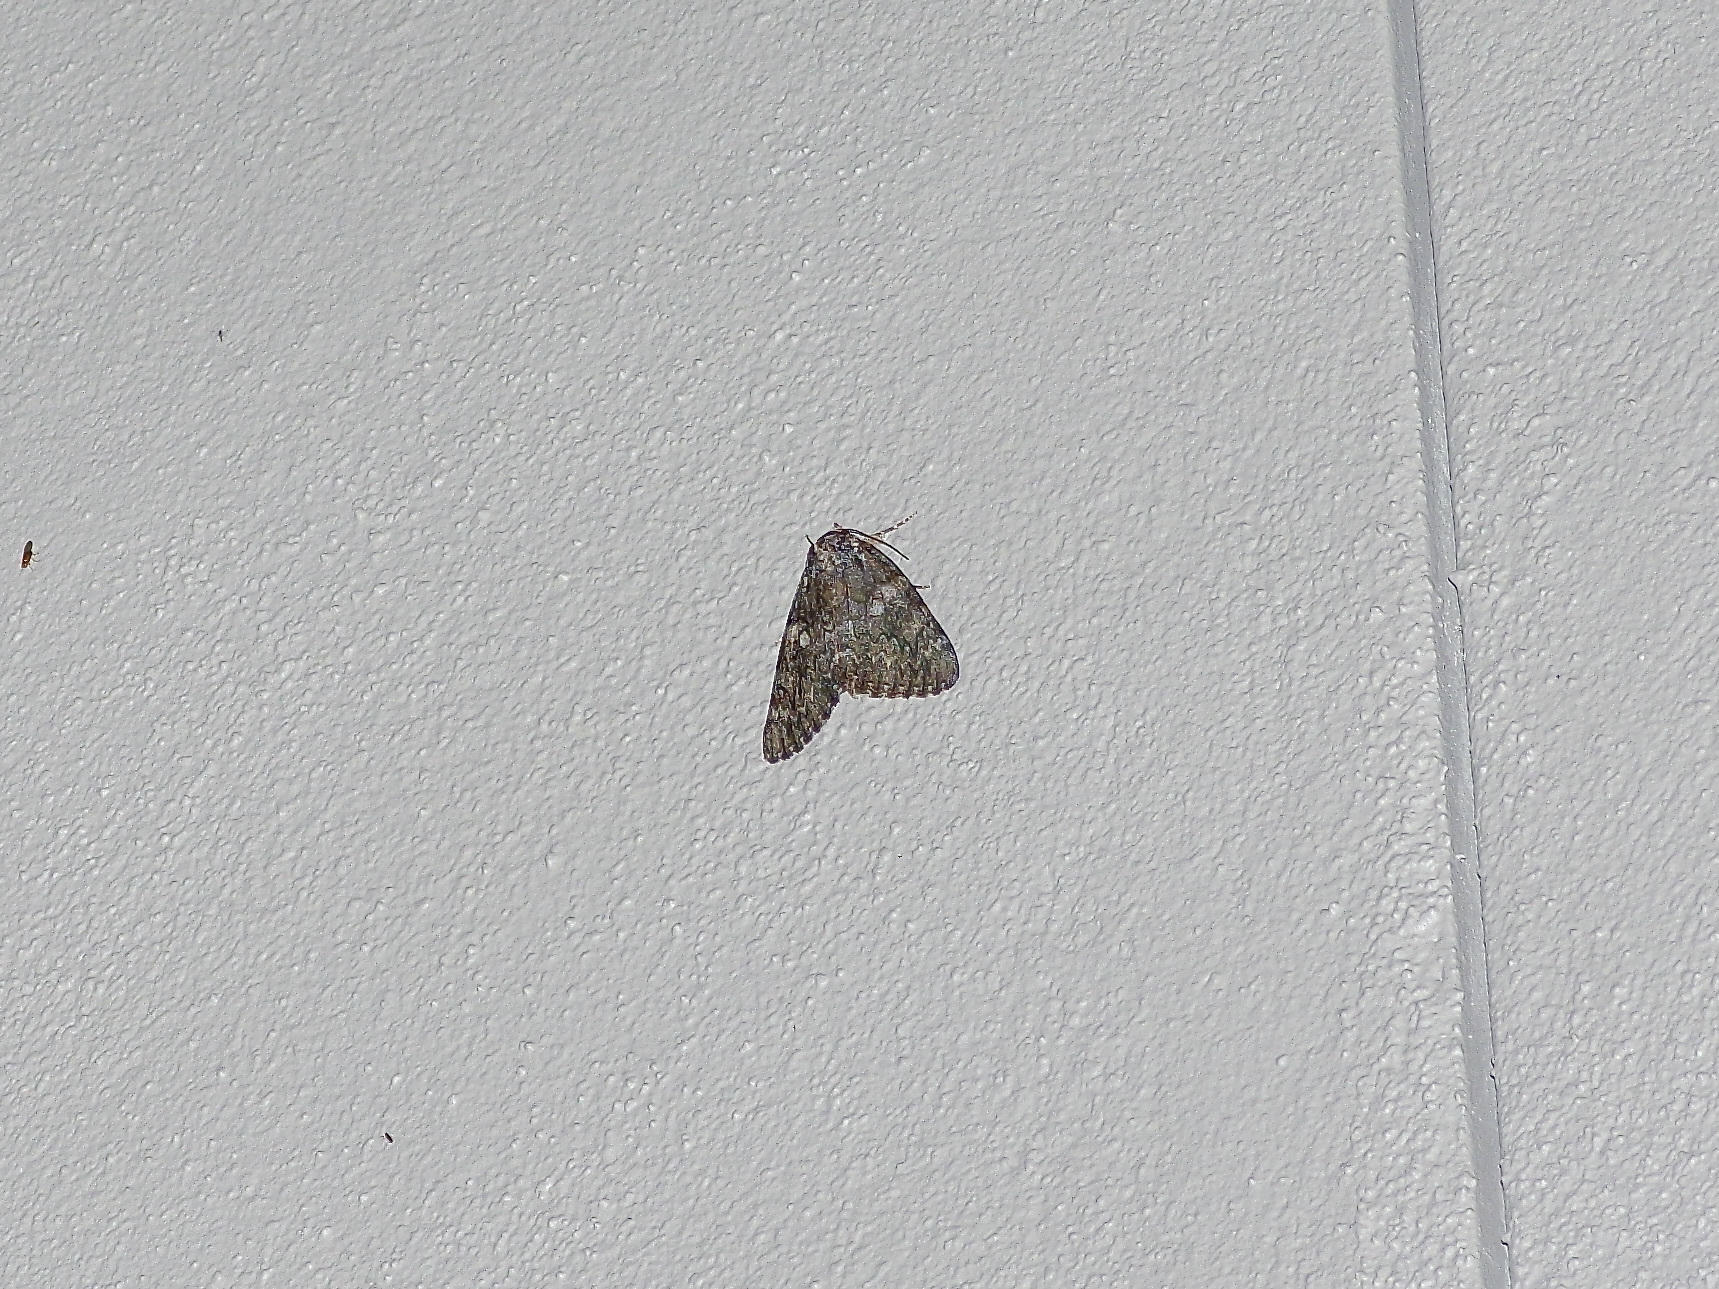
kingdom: Animalia
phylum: Arthropoda
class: Insecta
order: Lepidoptera
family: Erebidae
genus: Catocala
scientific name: Catocala ilia
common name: Ilia underwing
